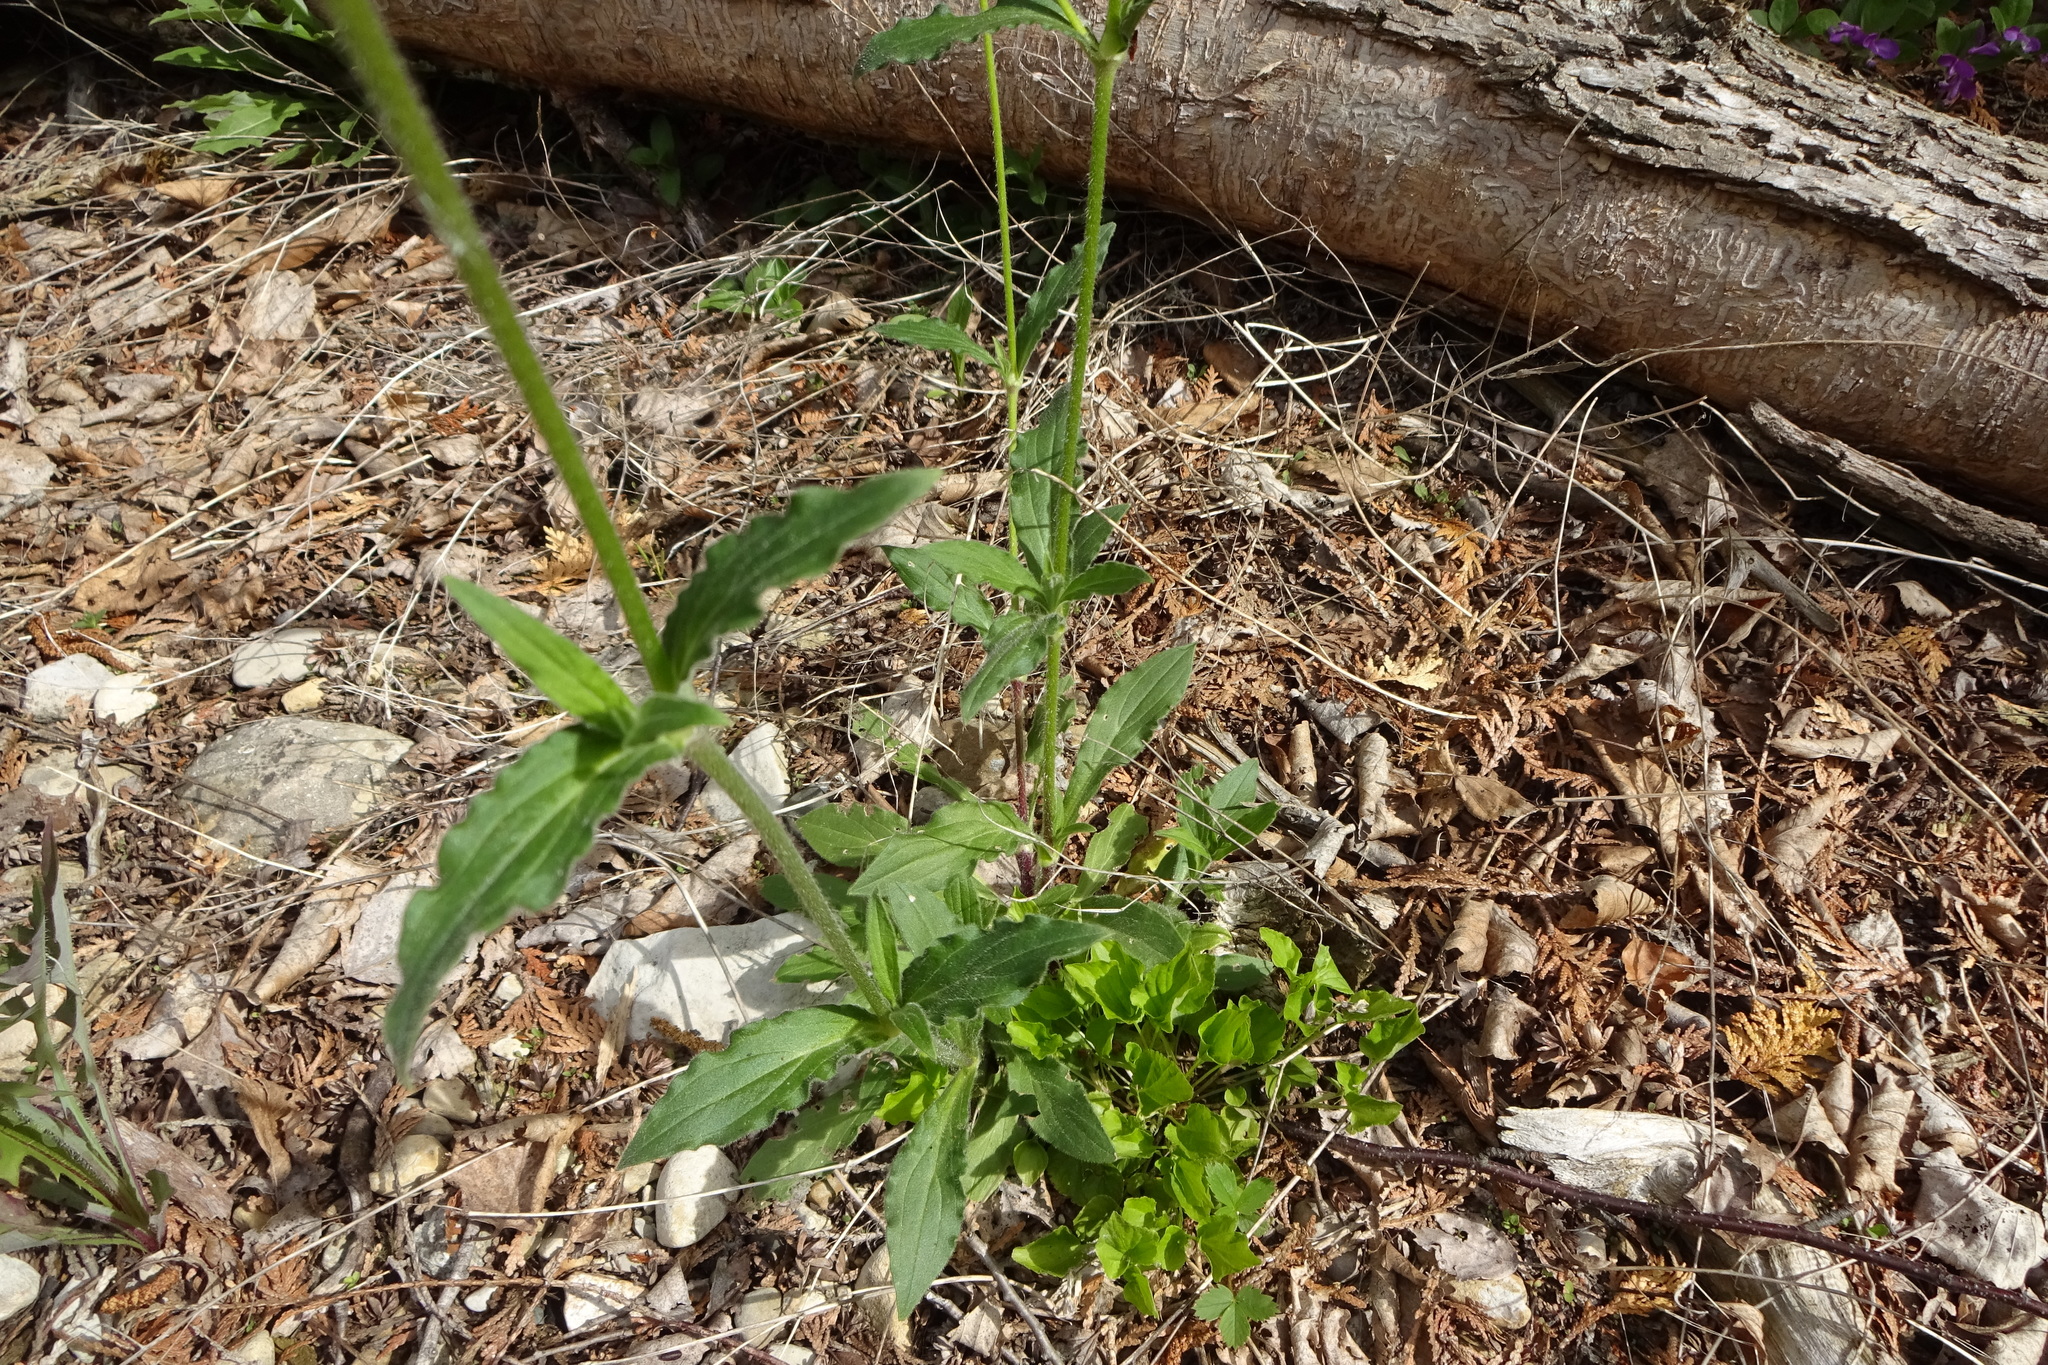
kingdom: Plantae
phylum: Tracheophyta
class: Magnoliopsida
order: Caryophyllales
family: Caryophyllaceae
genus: Silene
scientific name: Silene latifolia
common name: White campion
